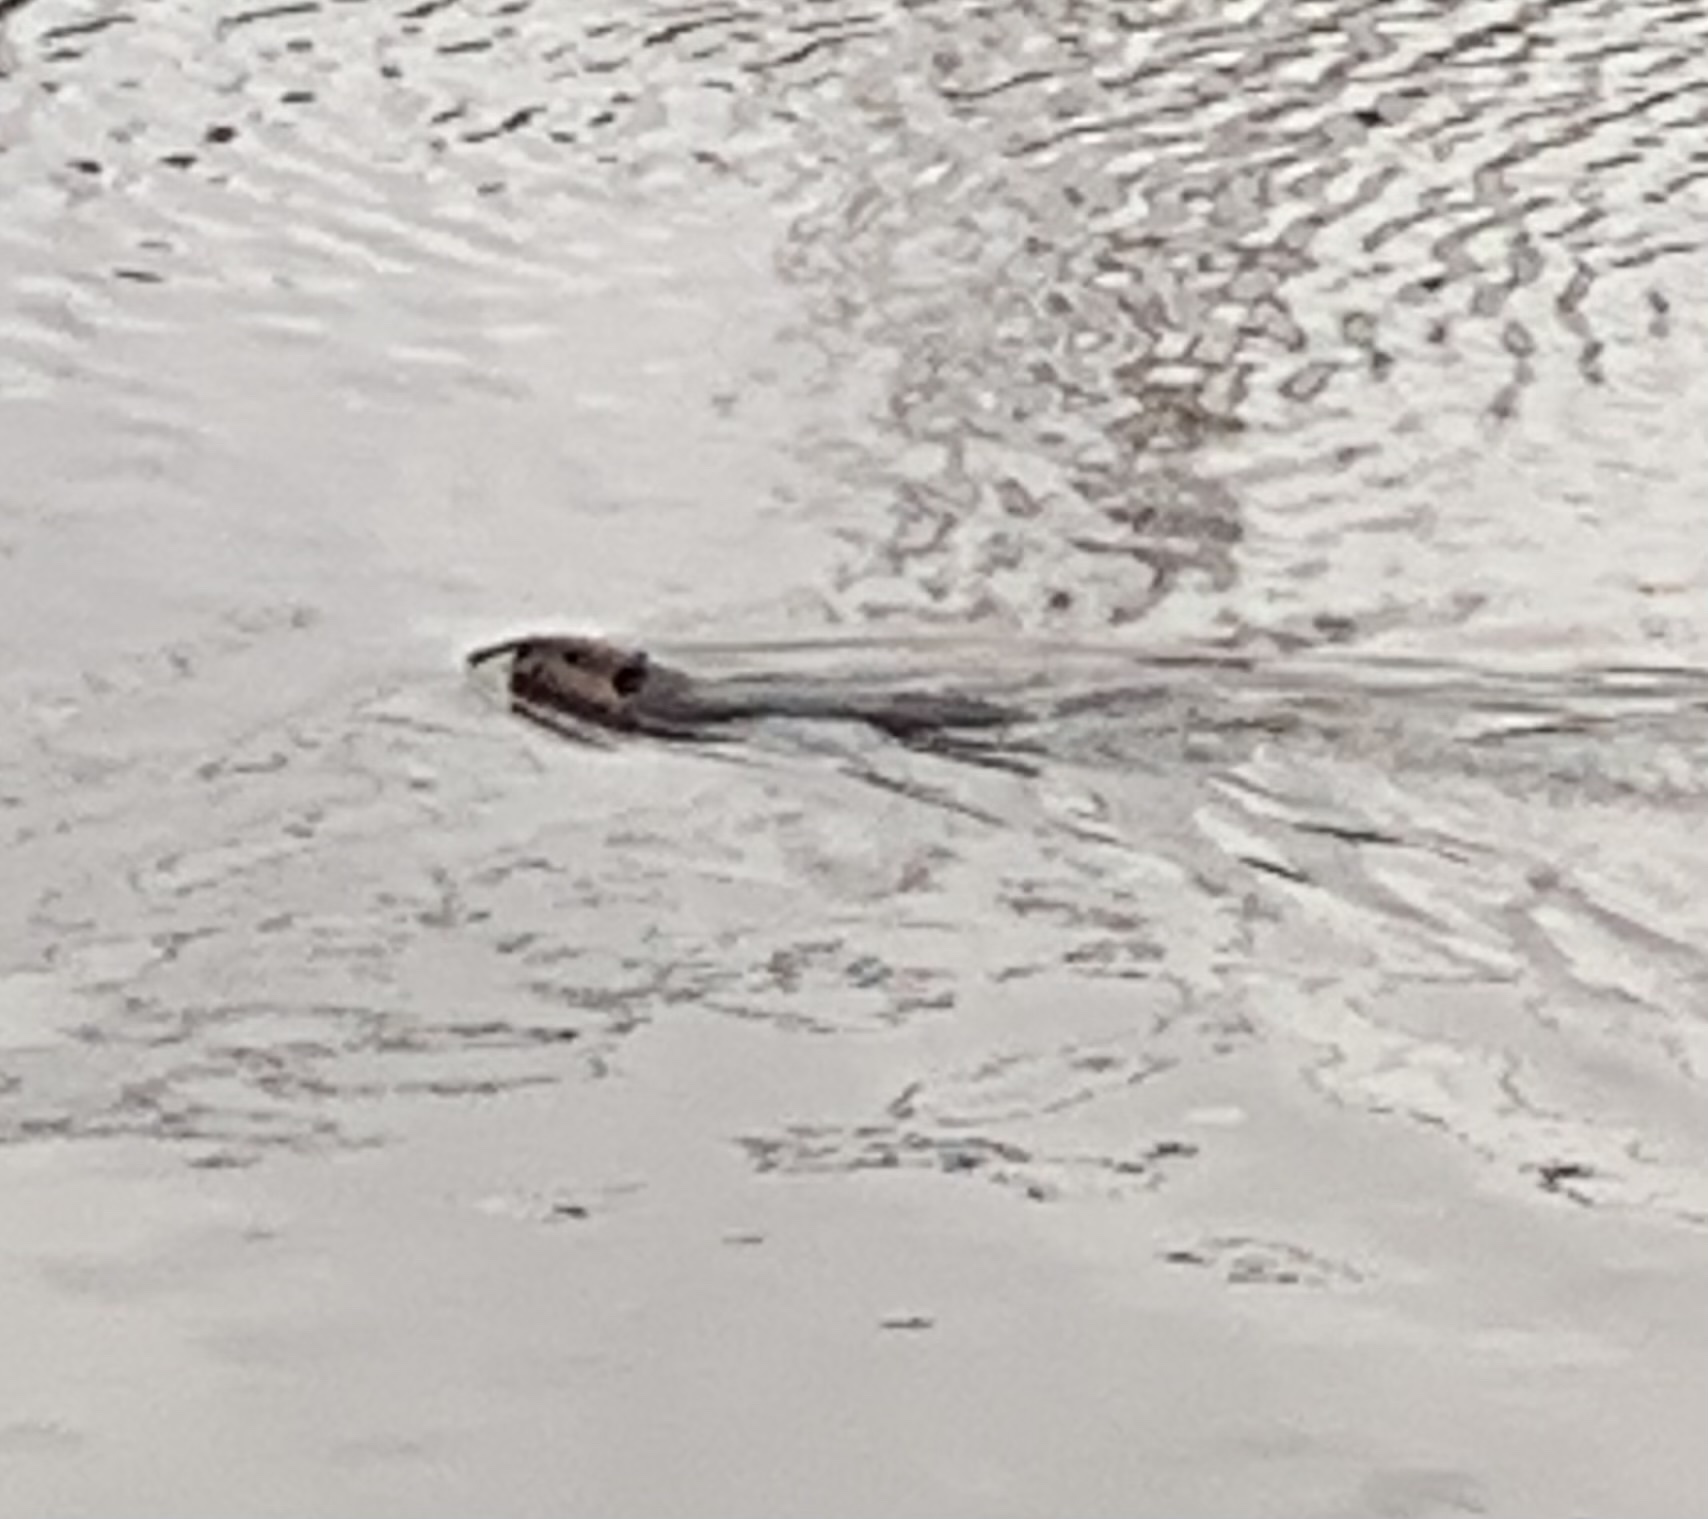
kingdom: Animalia
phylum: Chordata
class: Mammalia
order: Rodentia
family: Castoridae
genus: Castor
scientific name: Castor canadensis
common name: American beaver
